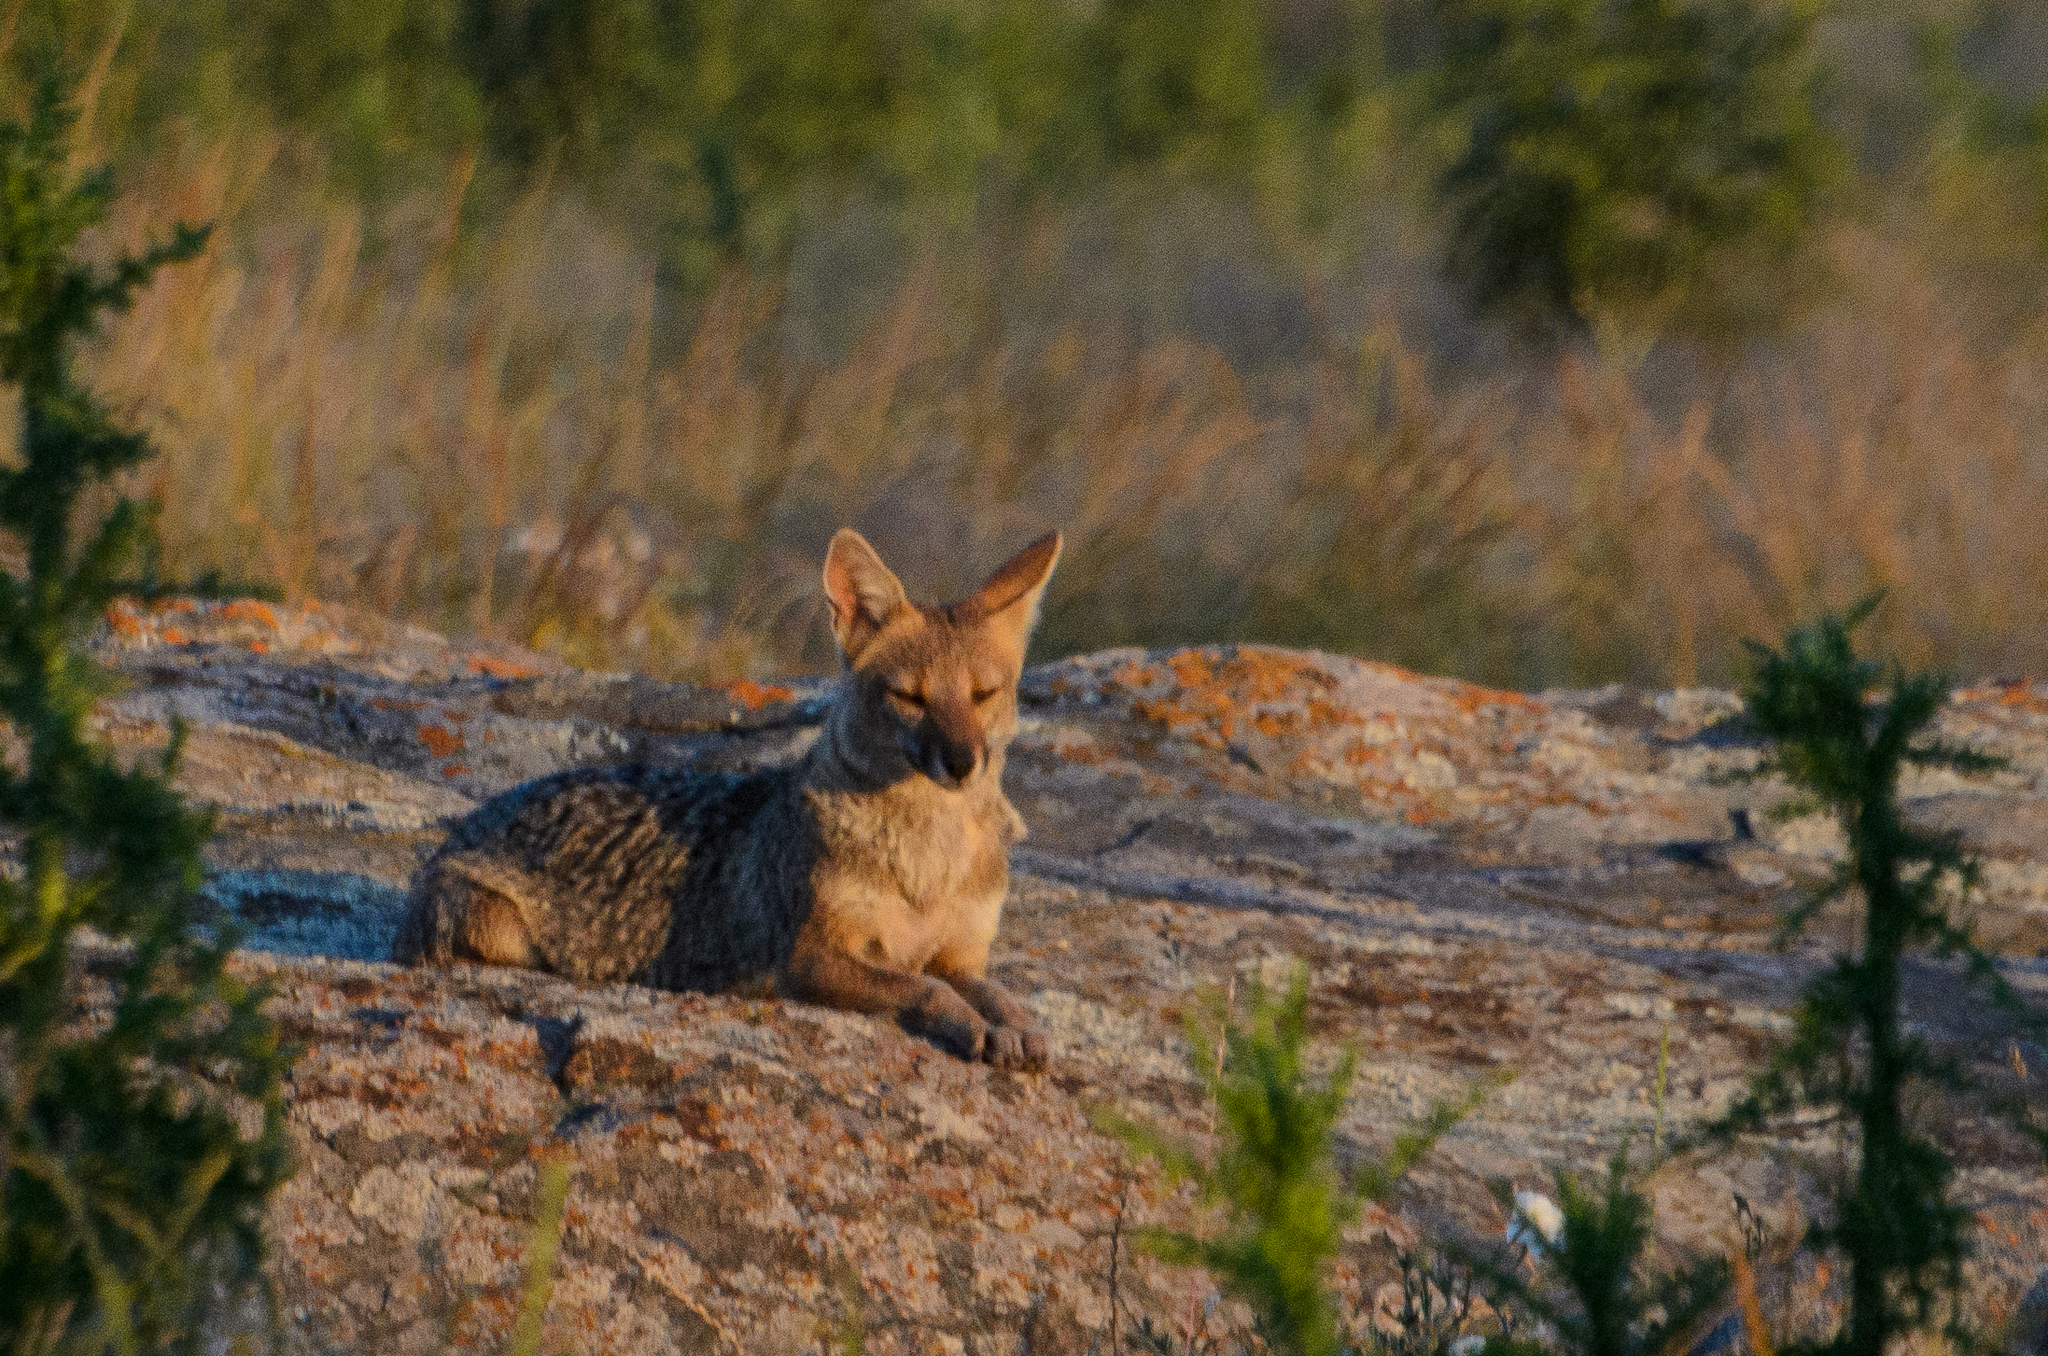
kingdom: Animalia
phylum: Chordata
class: Mammalia
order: Carnivora
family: Canidae
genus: Lycalopex
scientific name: Lycalopex gymnocercus
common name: Pampas fox
